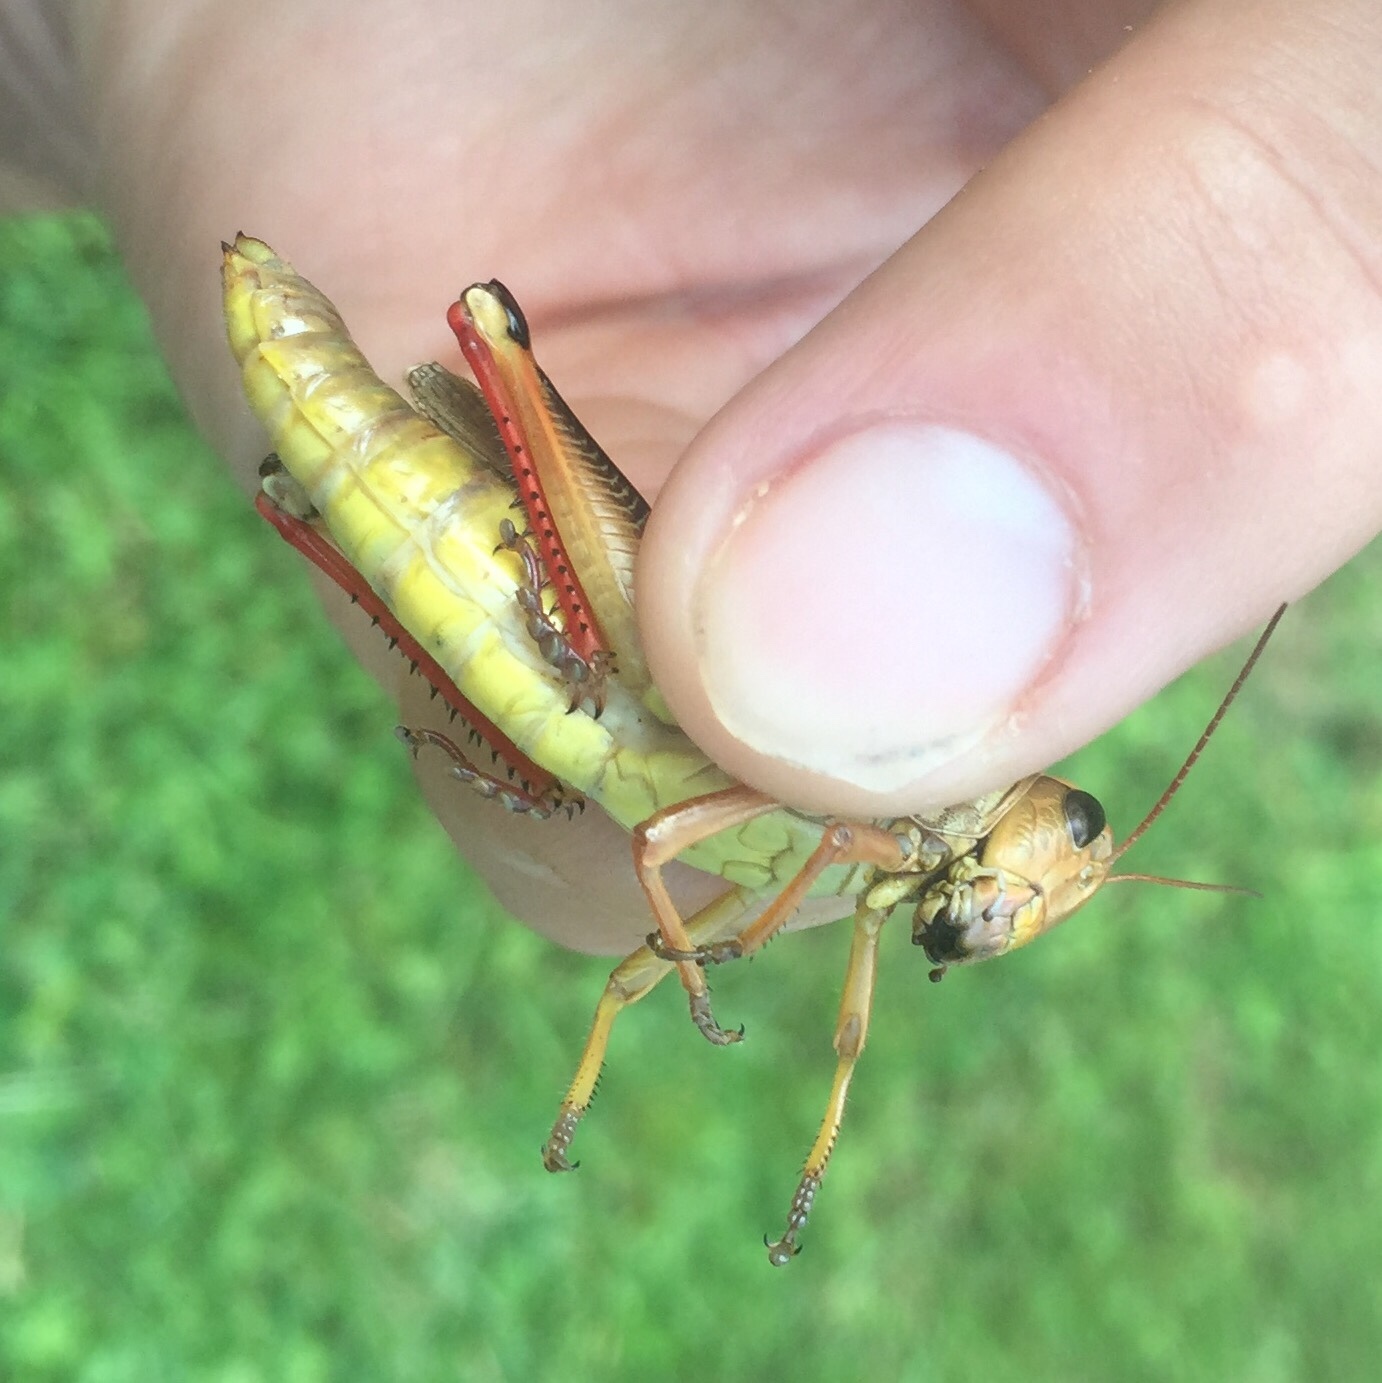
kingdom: Animalia
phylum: Arthropoda
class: Insecta
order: Orthoptera
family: Acrididae
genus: Melanoplus
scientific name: Melanoplus bivittatus
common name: Two-striped grasshopper
